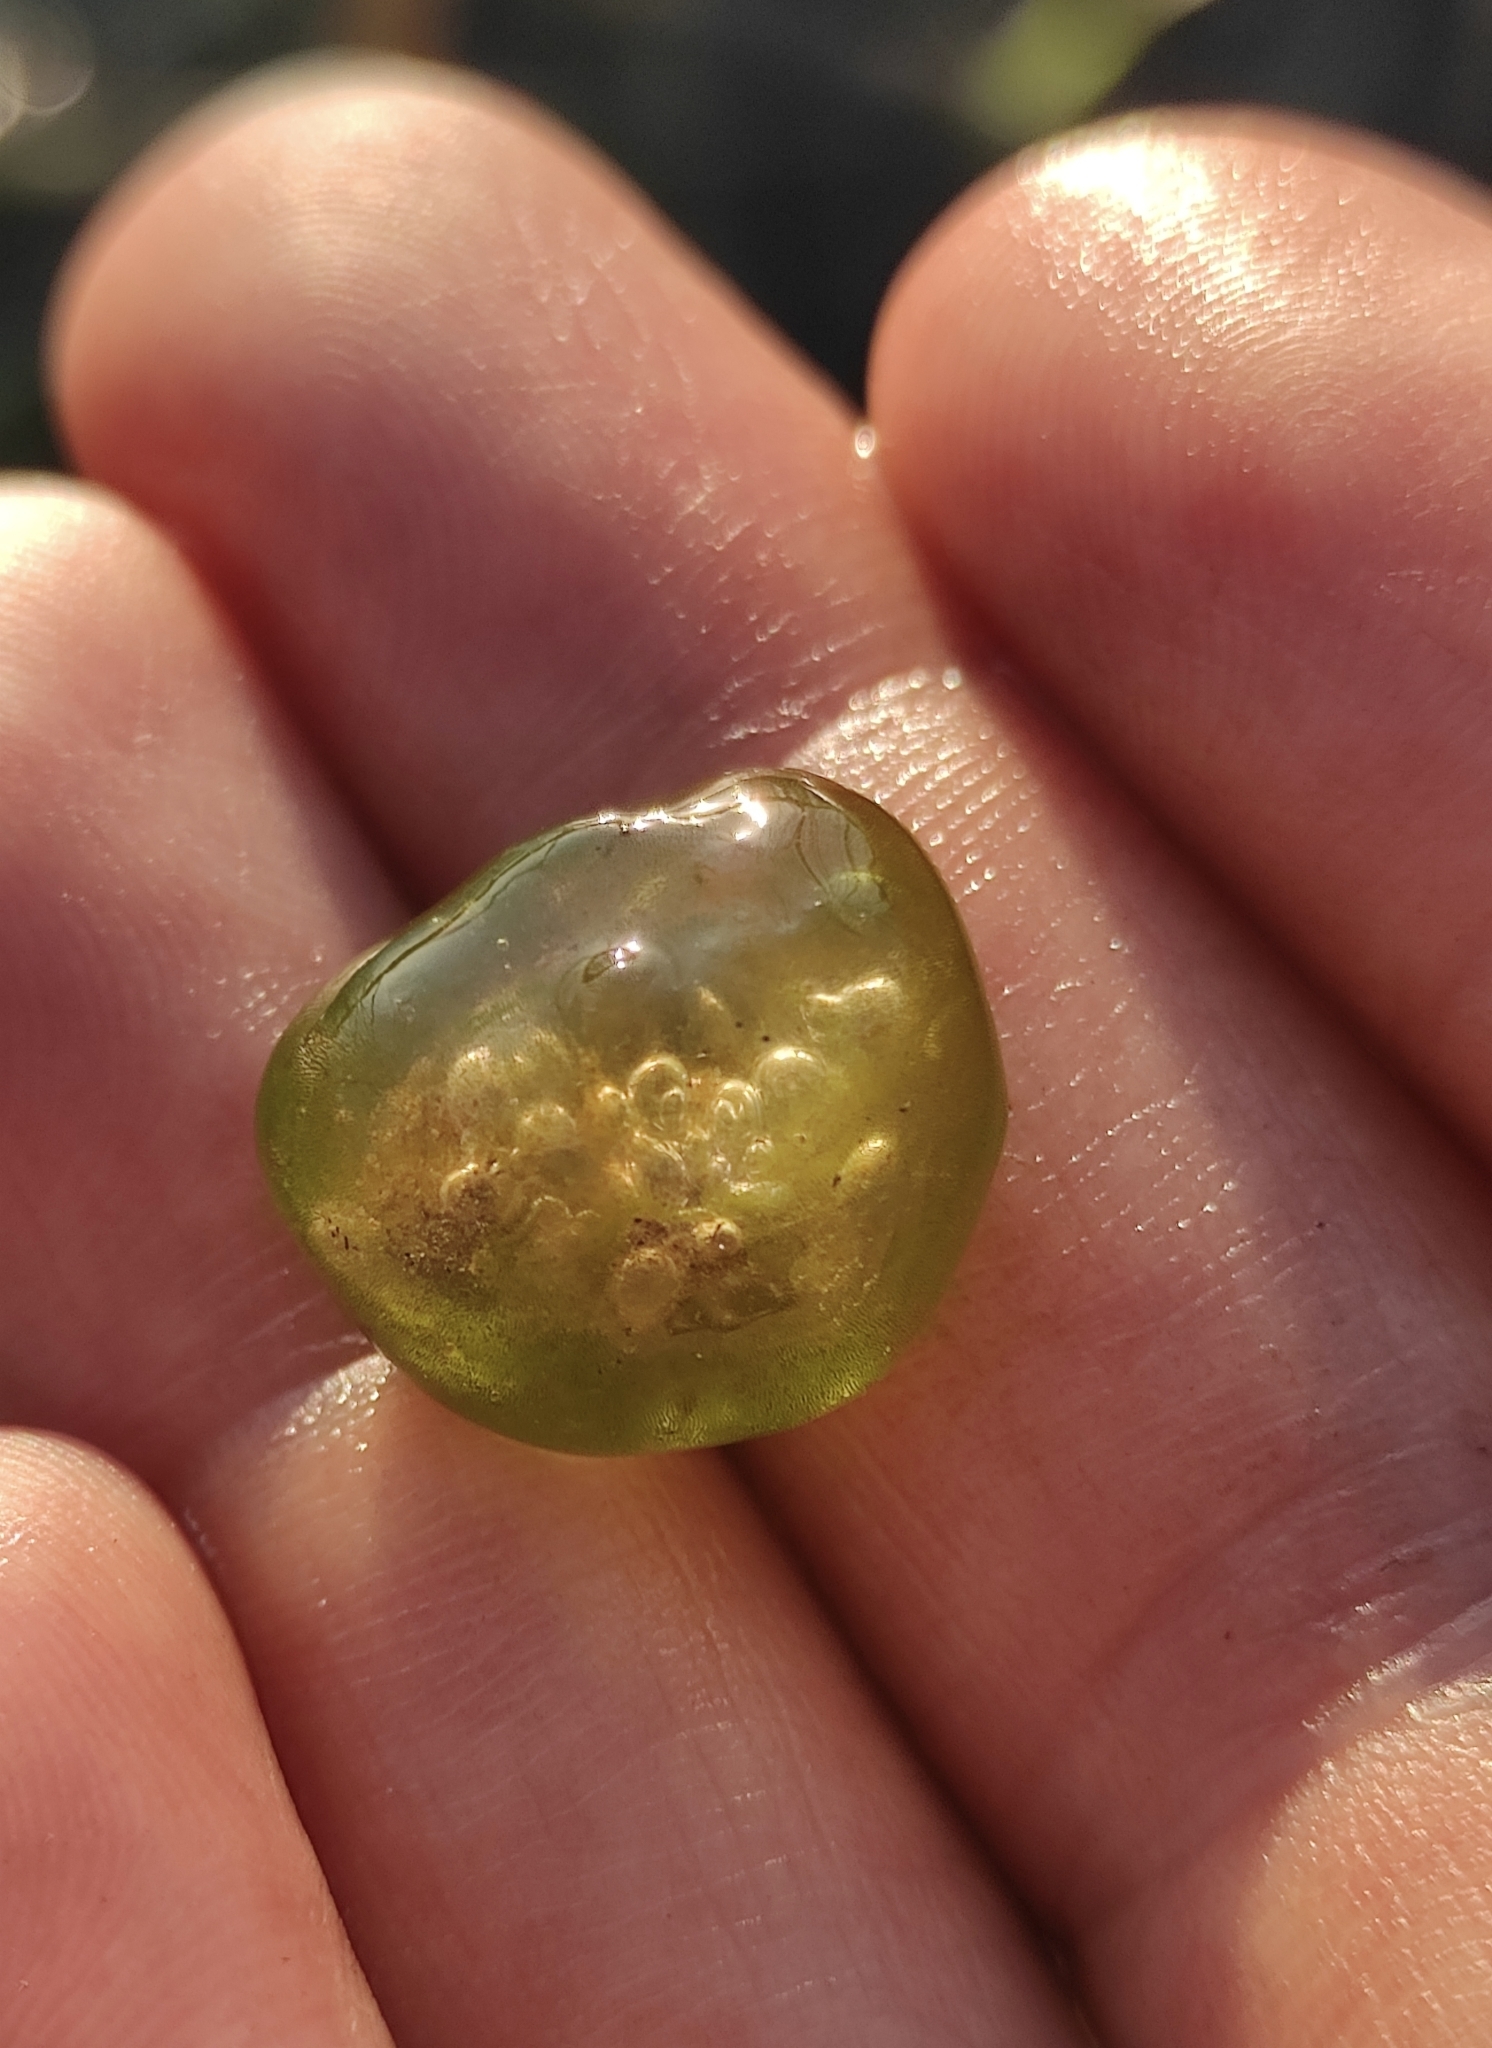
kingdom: Chromista
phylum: Ciliophora
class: Oligohymenophorea
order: Peritrichida
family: Ophrydiidae
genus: Ophrydium
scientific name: Ophrydium
